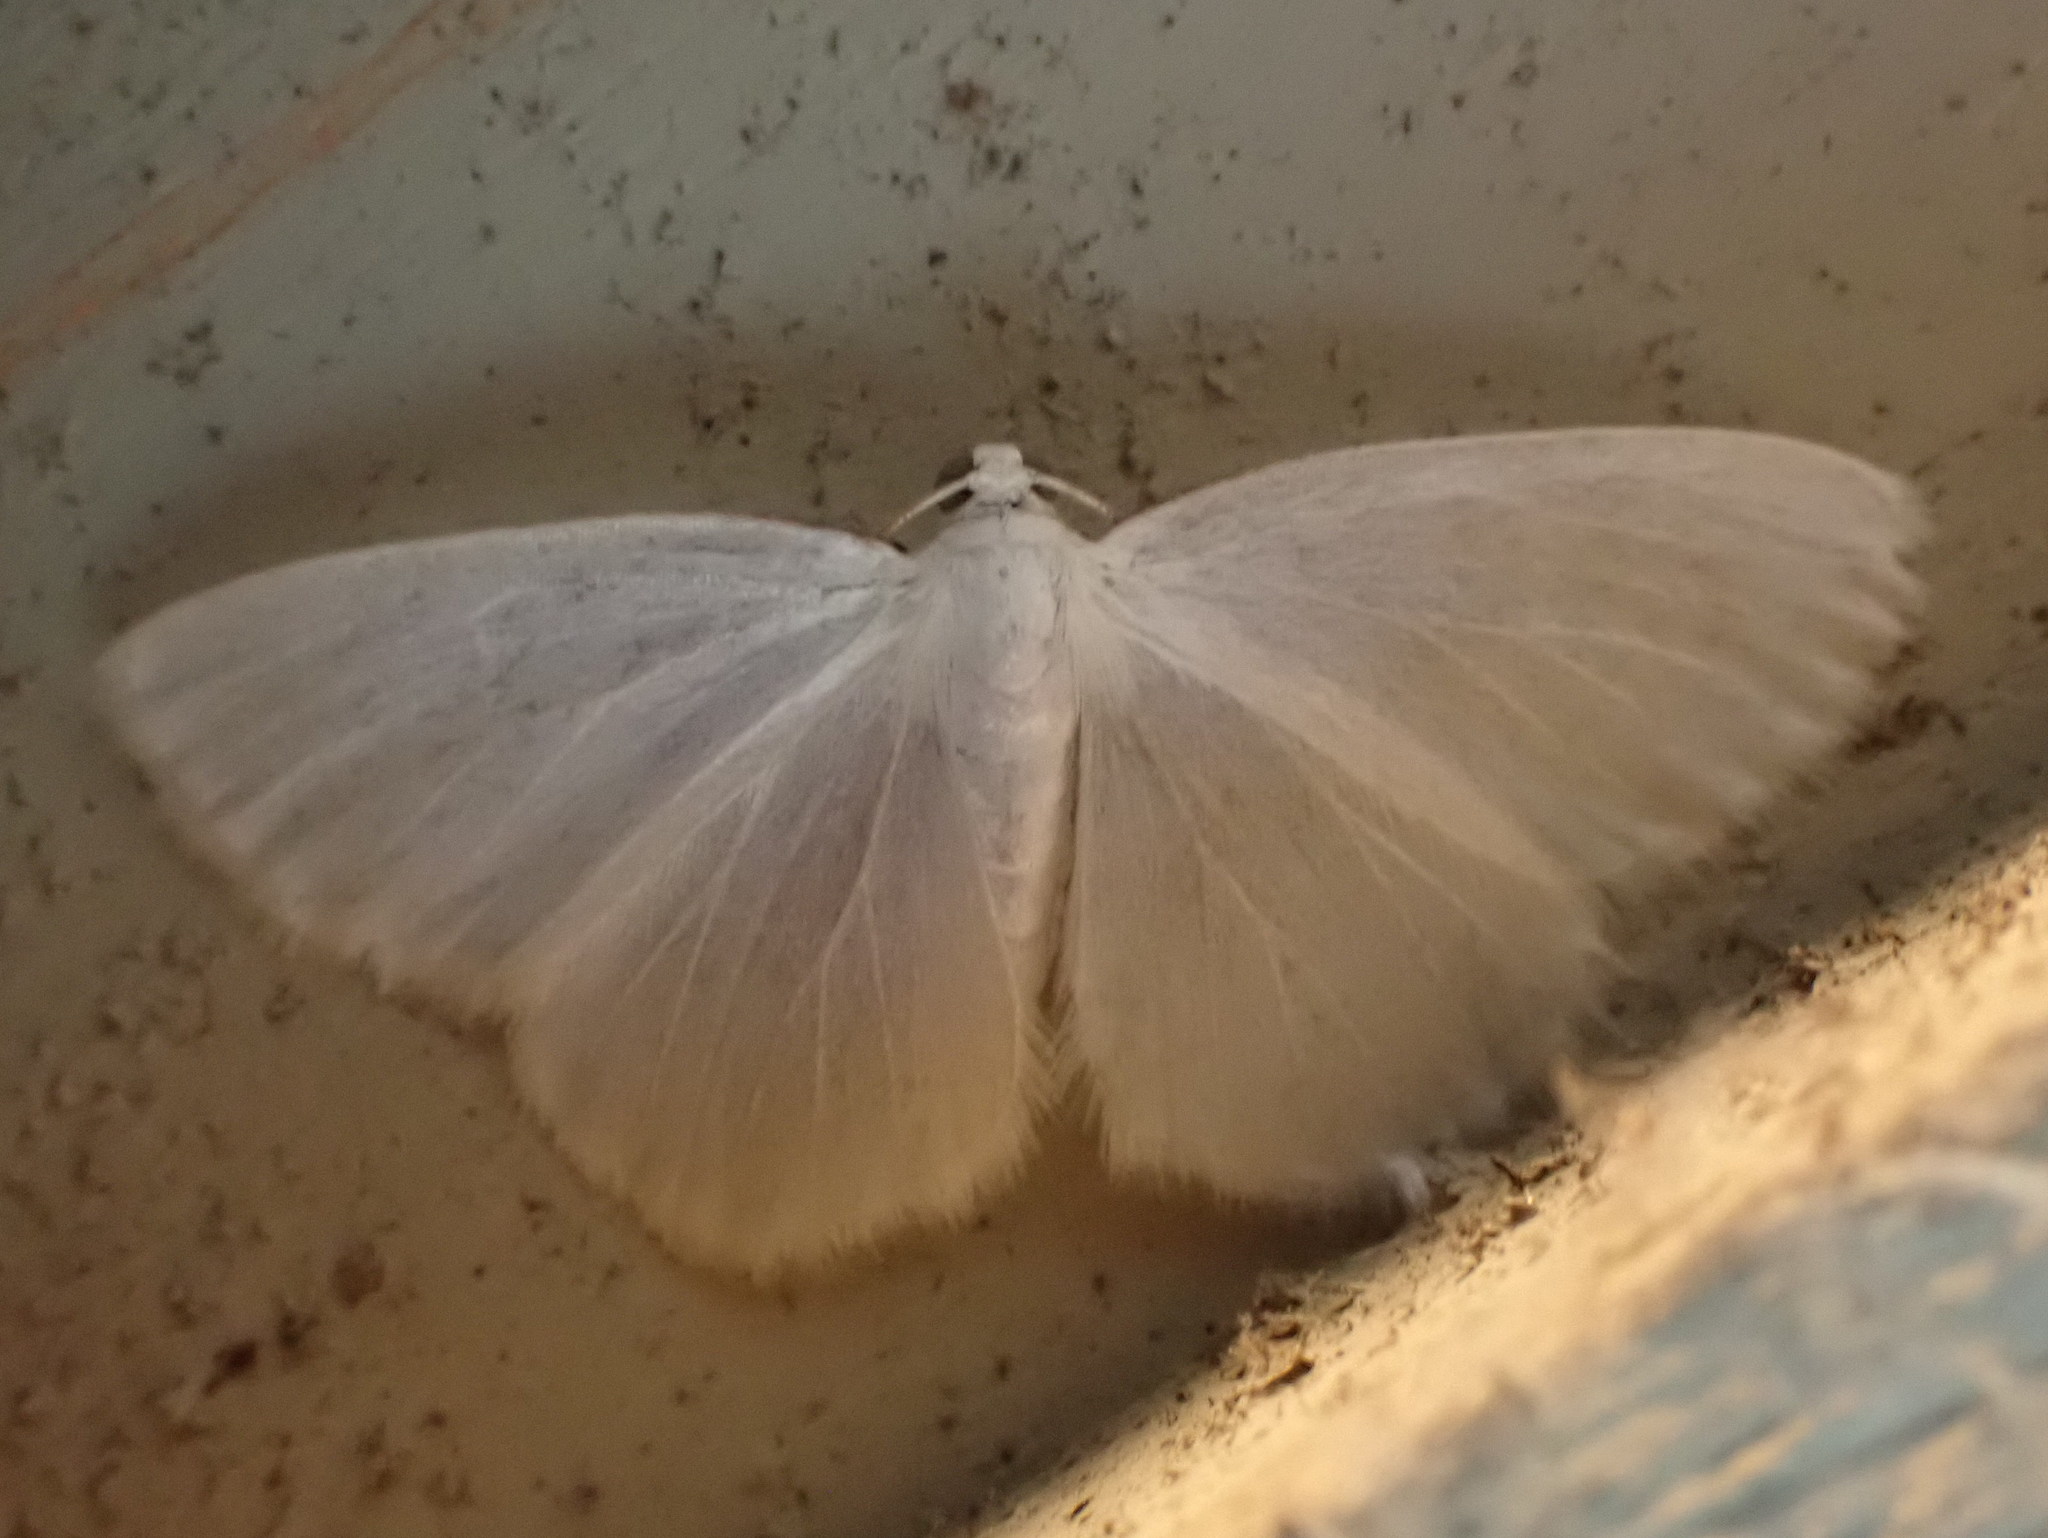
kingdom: Animalia
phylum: Arthropoda
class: Insecta
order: Lepidoptera
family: Geometridae
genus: Lomographa
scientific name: Lomographa vestaliata
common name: White spring moth
